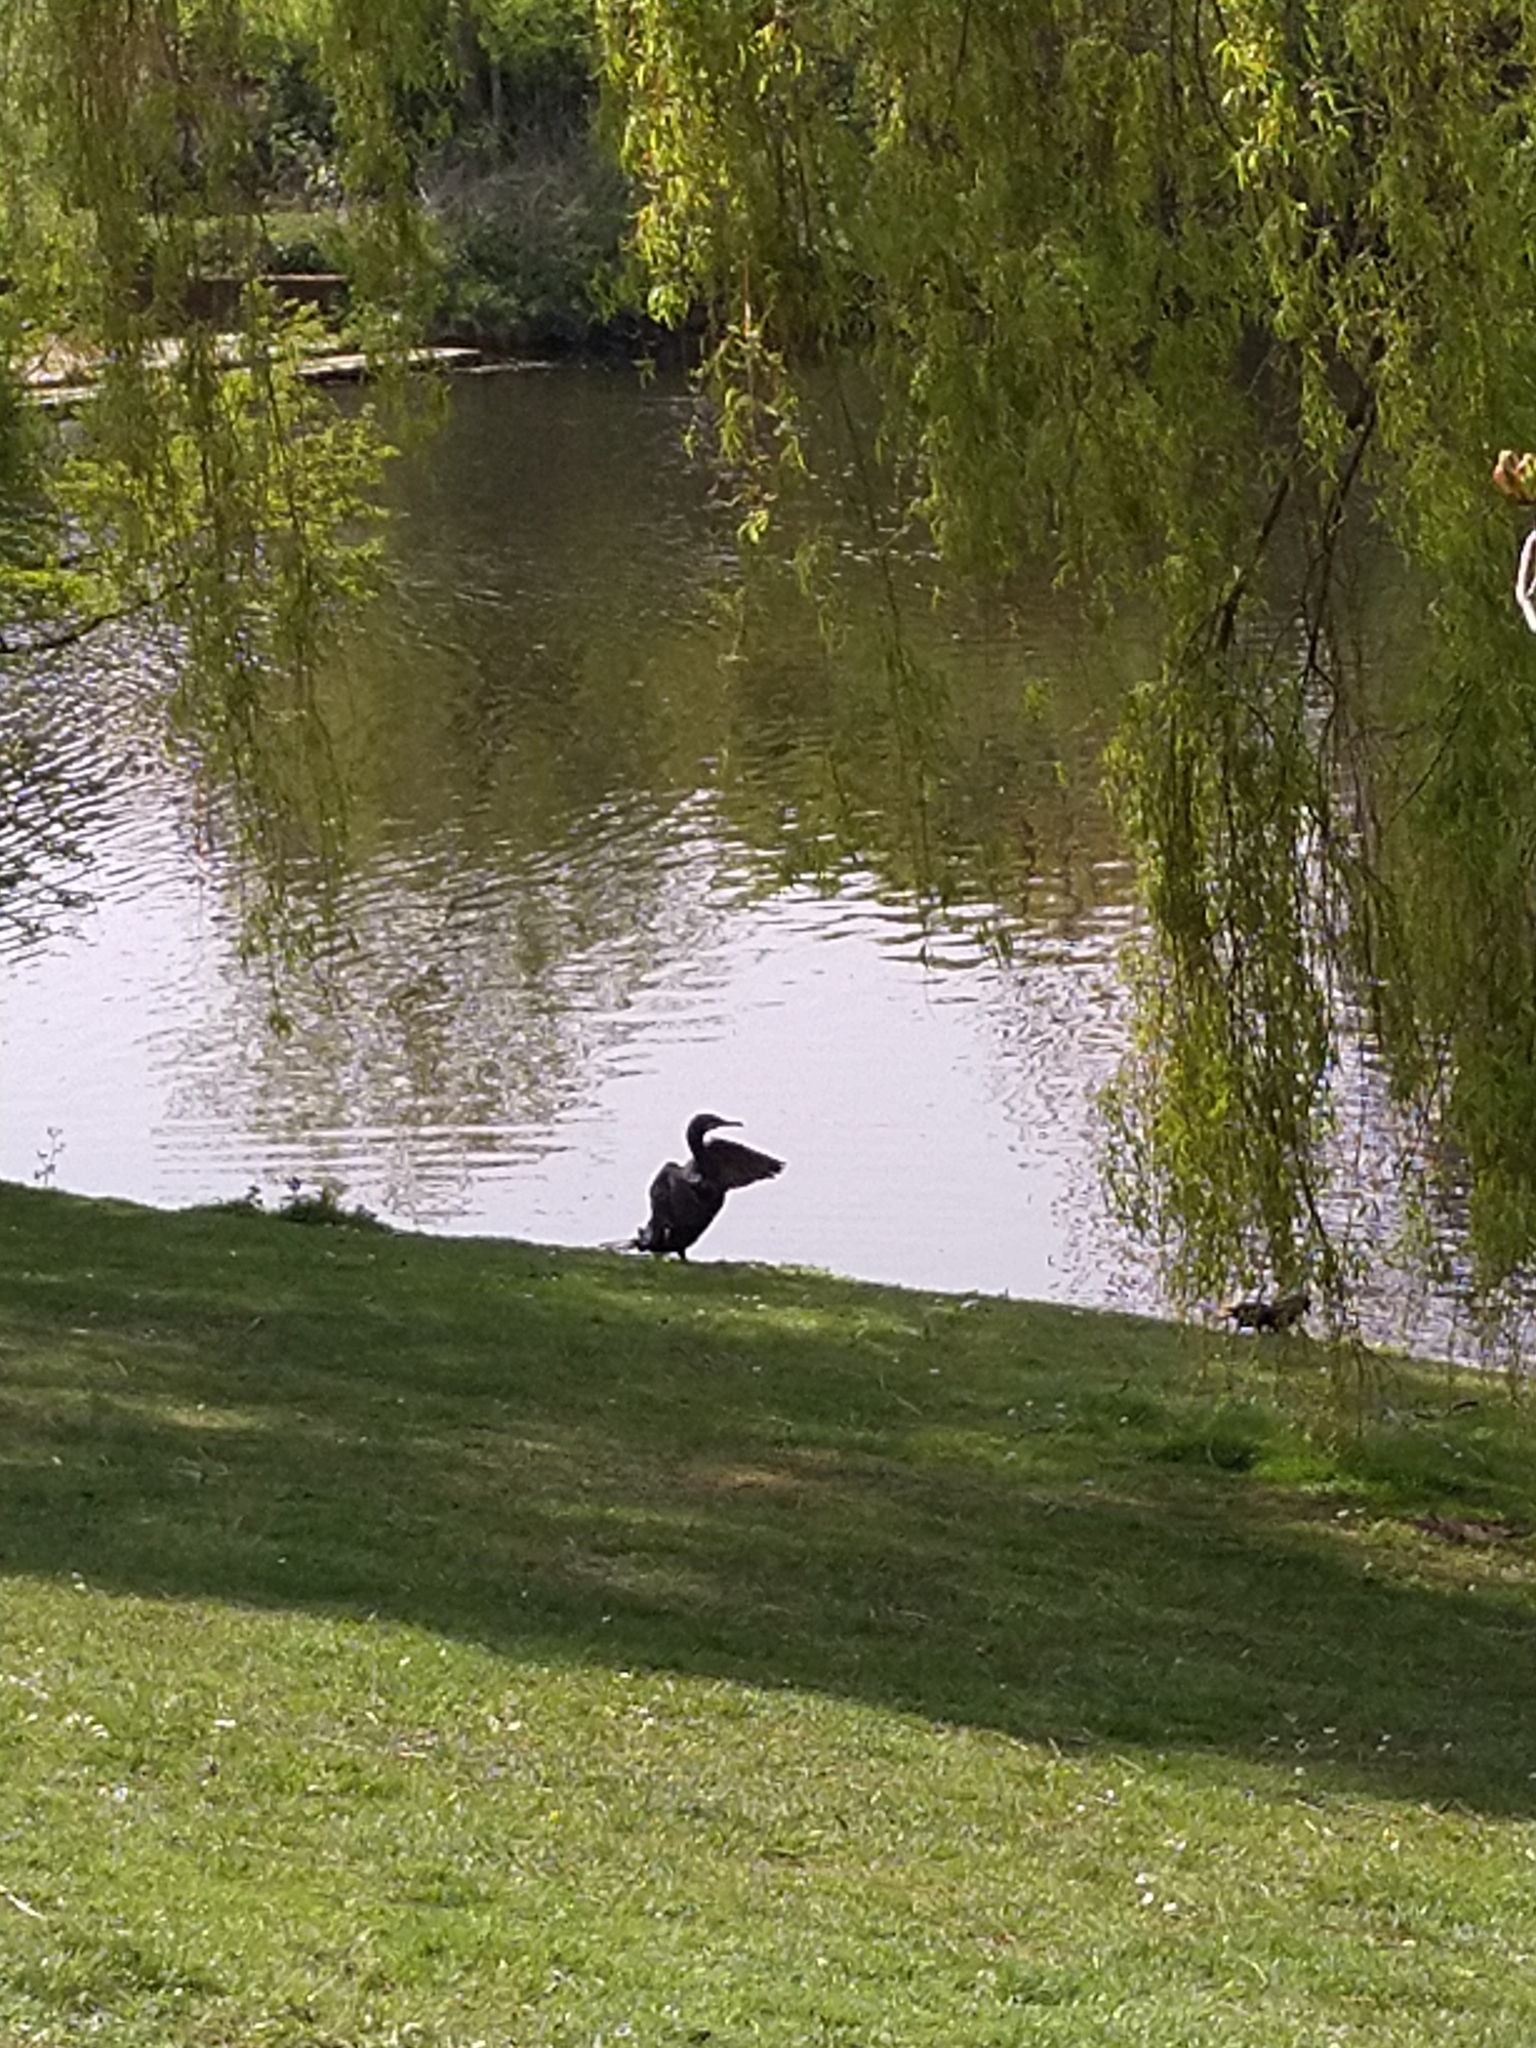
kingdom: Animalia
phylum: Chordata
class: Aves
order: Suliformes
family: Phalacrocoracidae
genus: Phalacrocorax
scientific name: Phalacrocorax carbo
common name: Great cormorant
